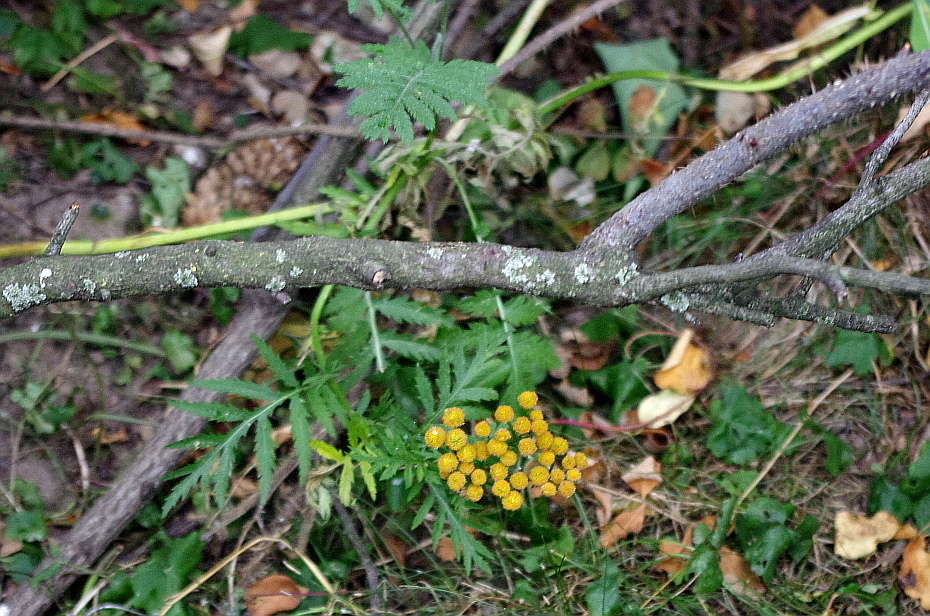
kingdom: Plantae
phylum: Tracheophyta
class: Magnoliopsida
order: Asterales
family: Asteraceae
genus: Tanacetum
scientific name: Tanacetum vulgare
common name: Common tansy
